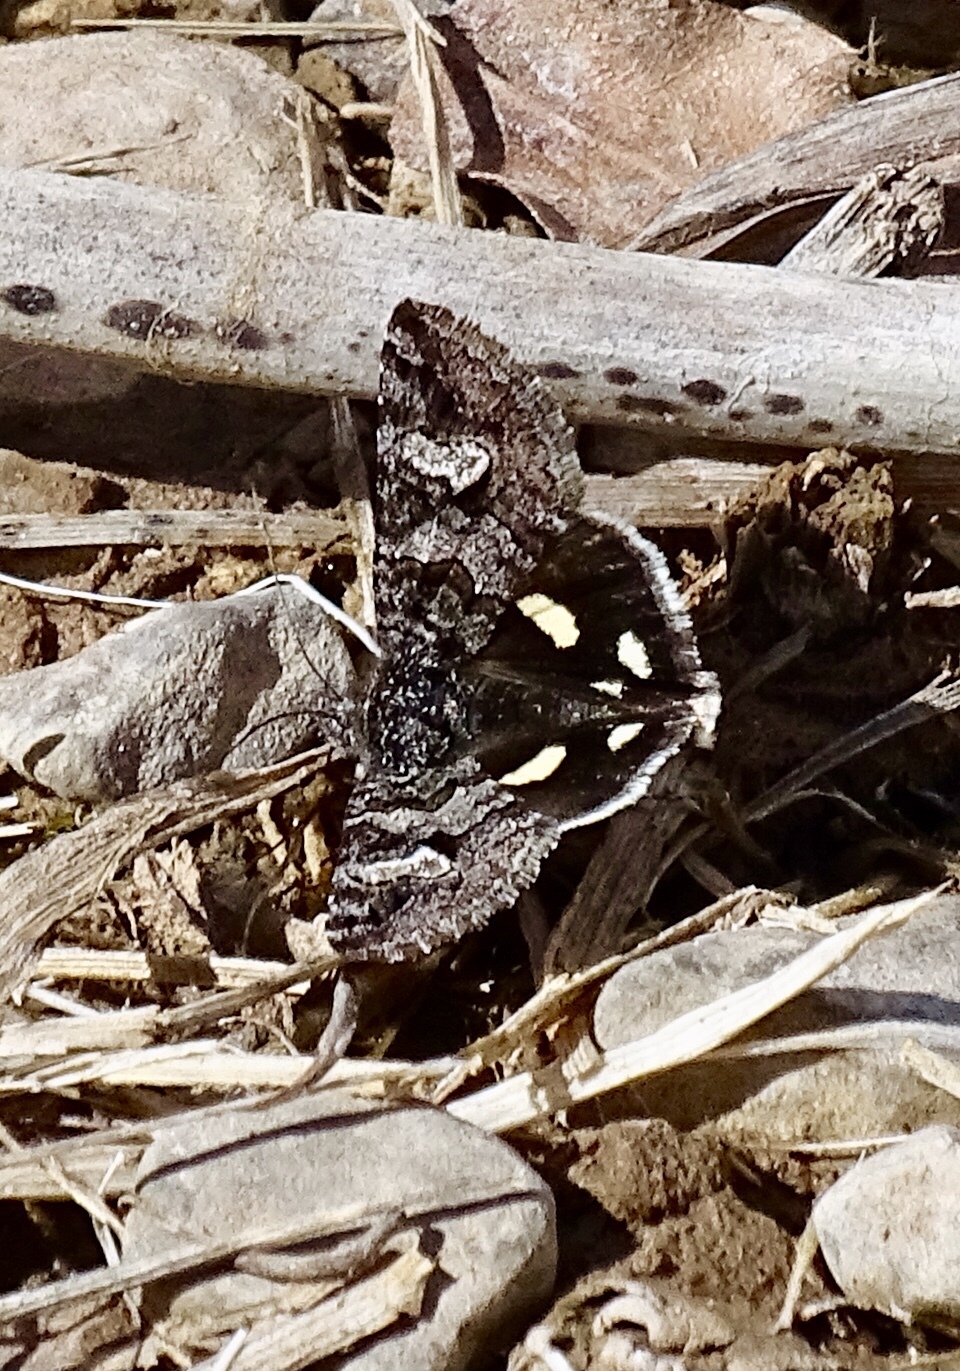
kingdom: Animalia
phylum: Arthropoda
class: Insecta
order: Lepidoptera
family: Erebidae
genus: Litocala
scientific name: Litocala sexsignata
